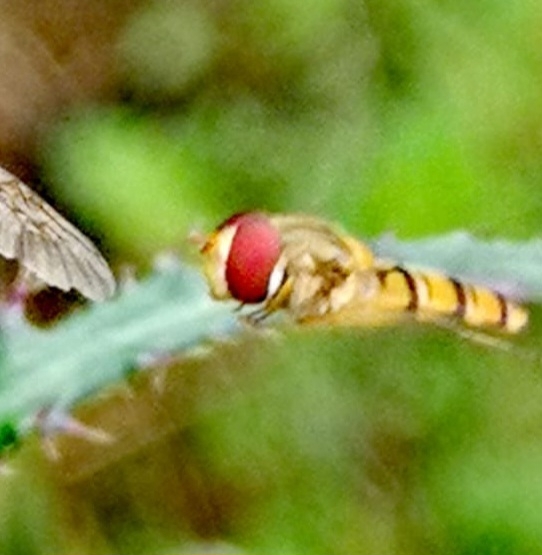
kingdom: Animalia
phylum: Arthropoda
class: Insecta
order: Diptera
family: Syrphidae
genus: Episyrphus
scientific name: Episyrphus balteatus
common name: Marmalade hoverfly
